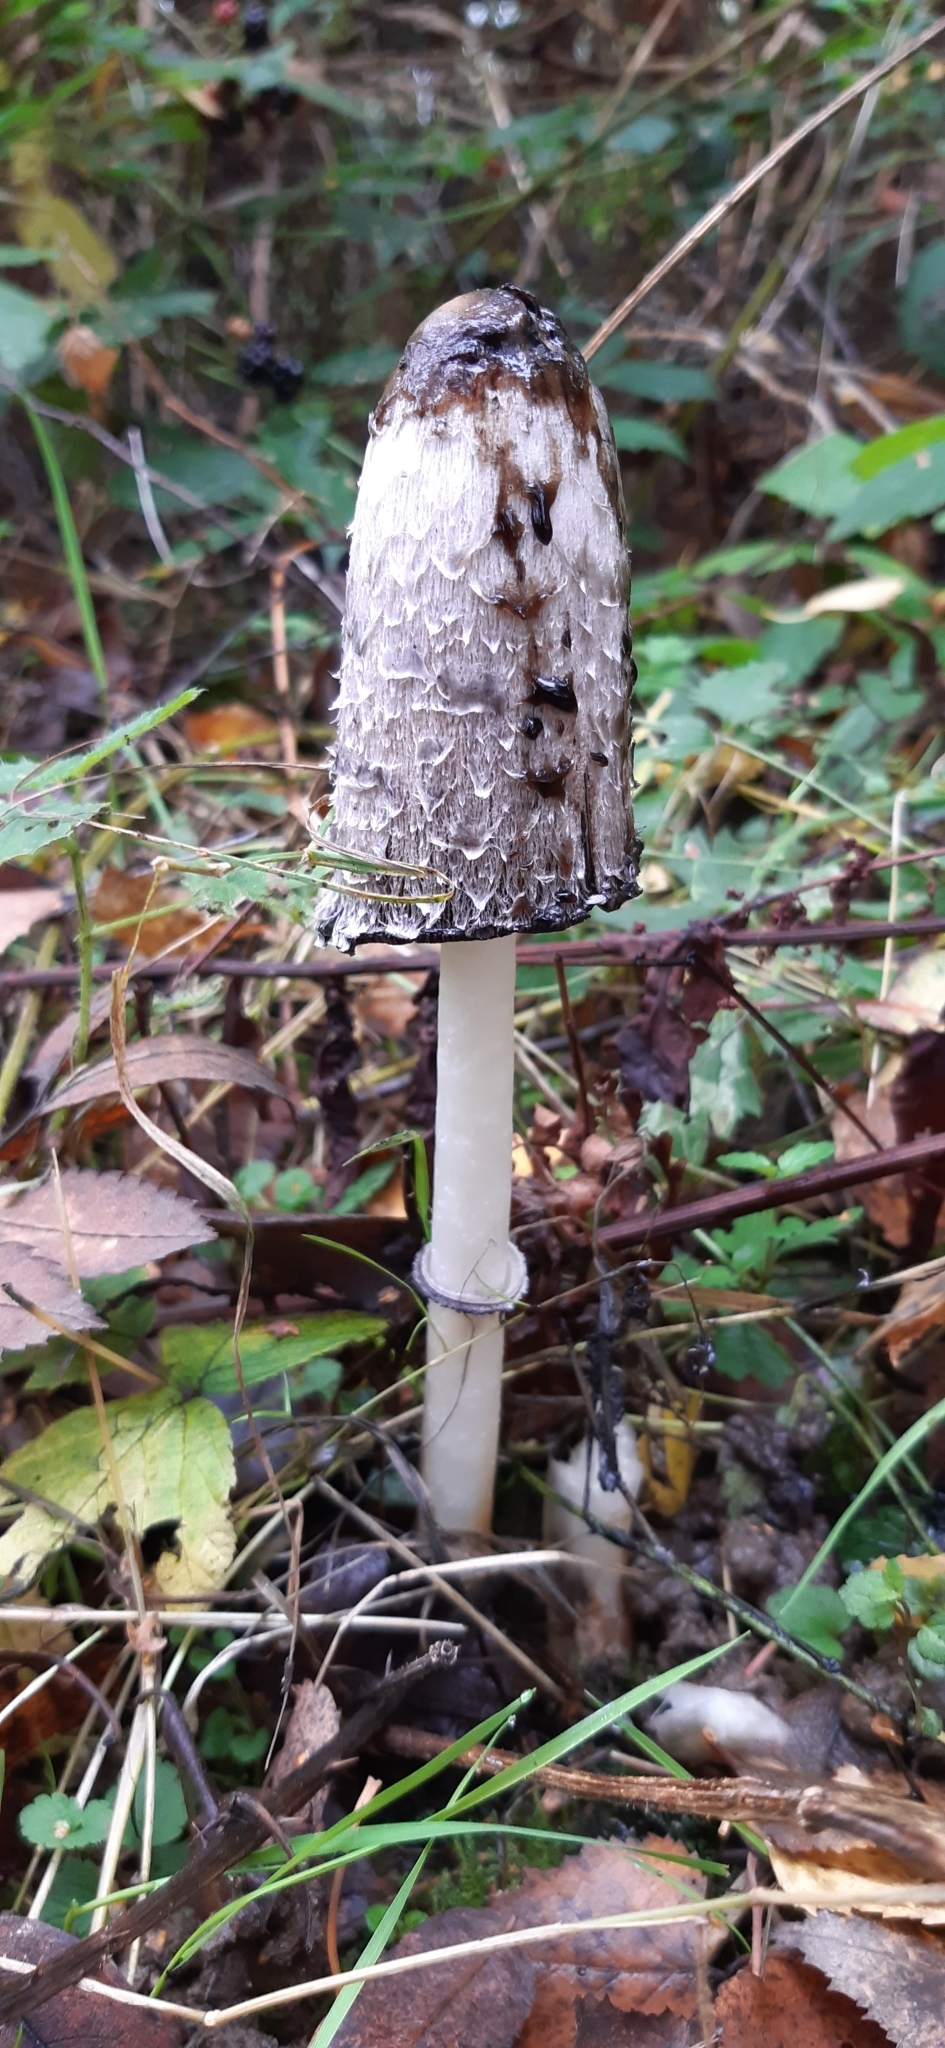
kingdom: Fungi
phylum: Basidiomycota
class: Agaricomycetes
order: Agaricales
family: Agaricaceae
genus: Coprinus
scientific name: Coprinus comatus
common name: Lawyer's wig
